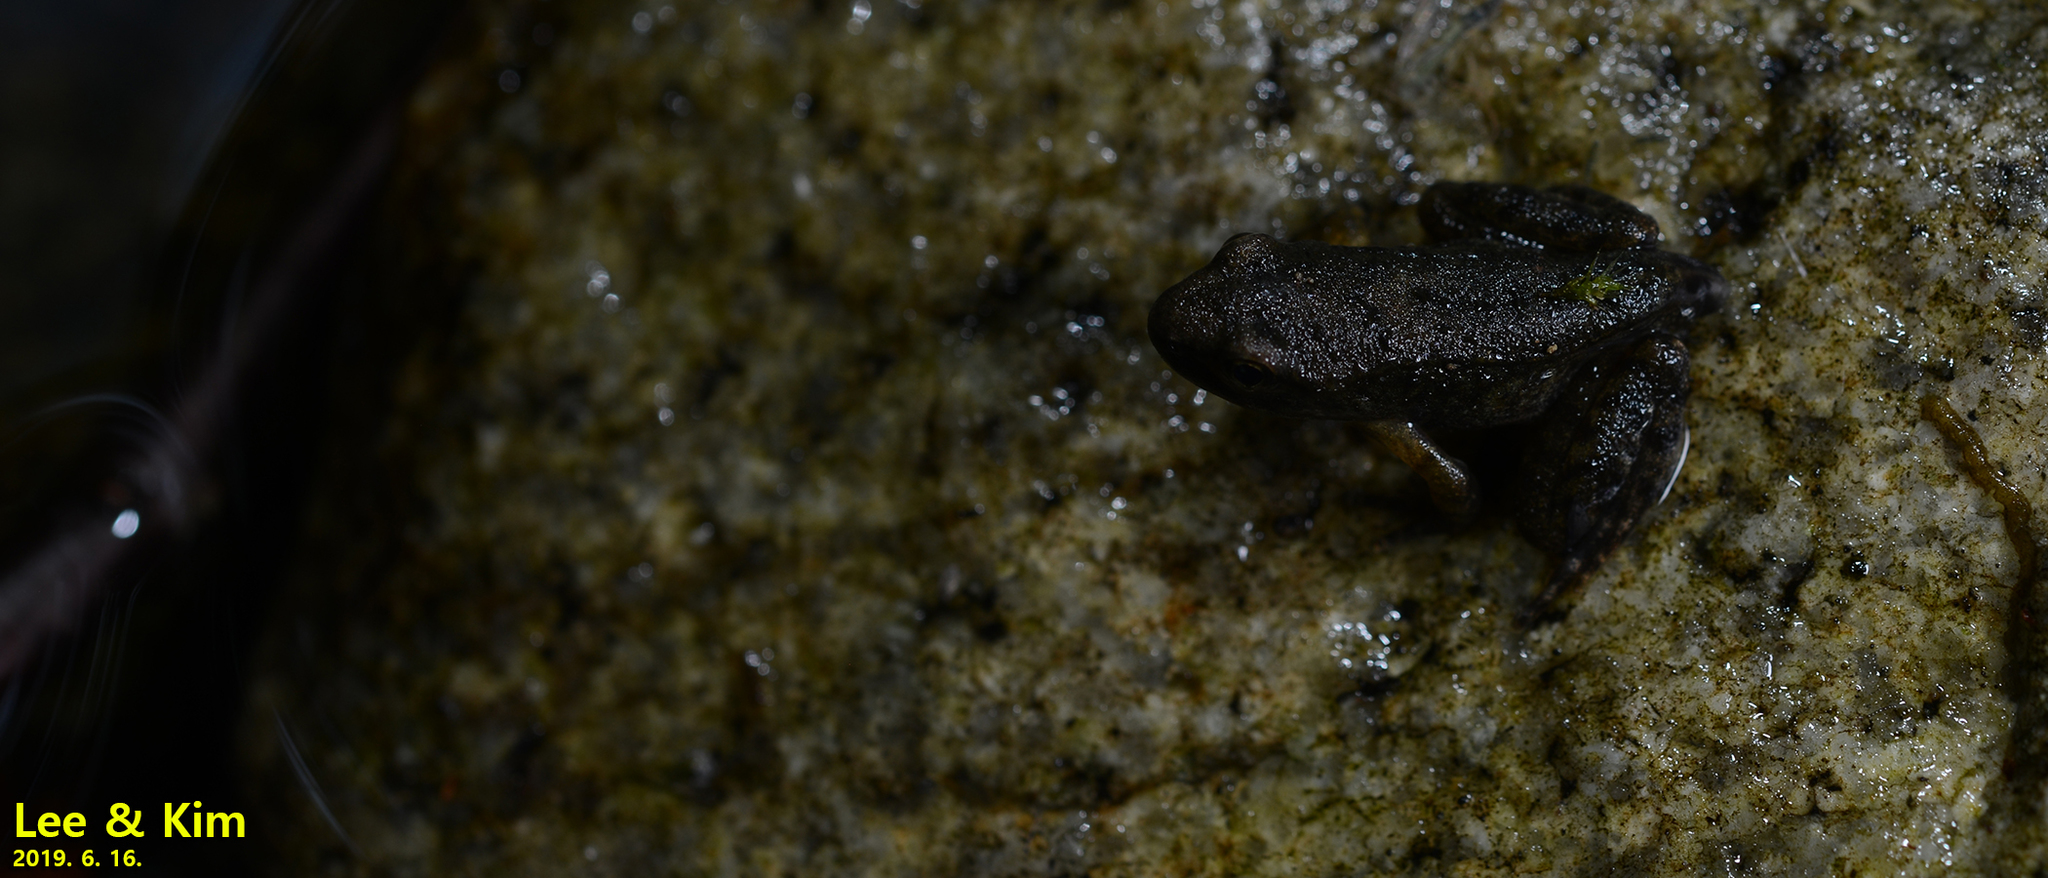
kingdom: Animalia
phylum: Chordata
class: Amphibia
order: Anura
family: Ranidae
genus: Rana
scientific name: Rana huanrenensis
